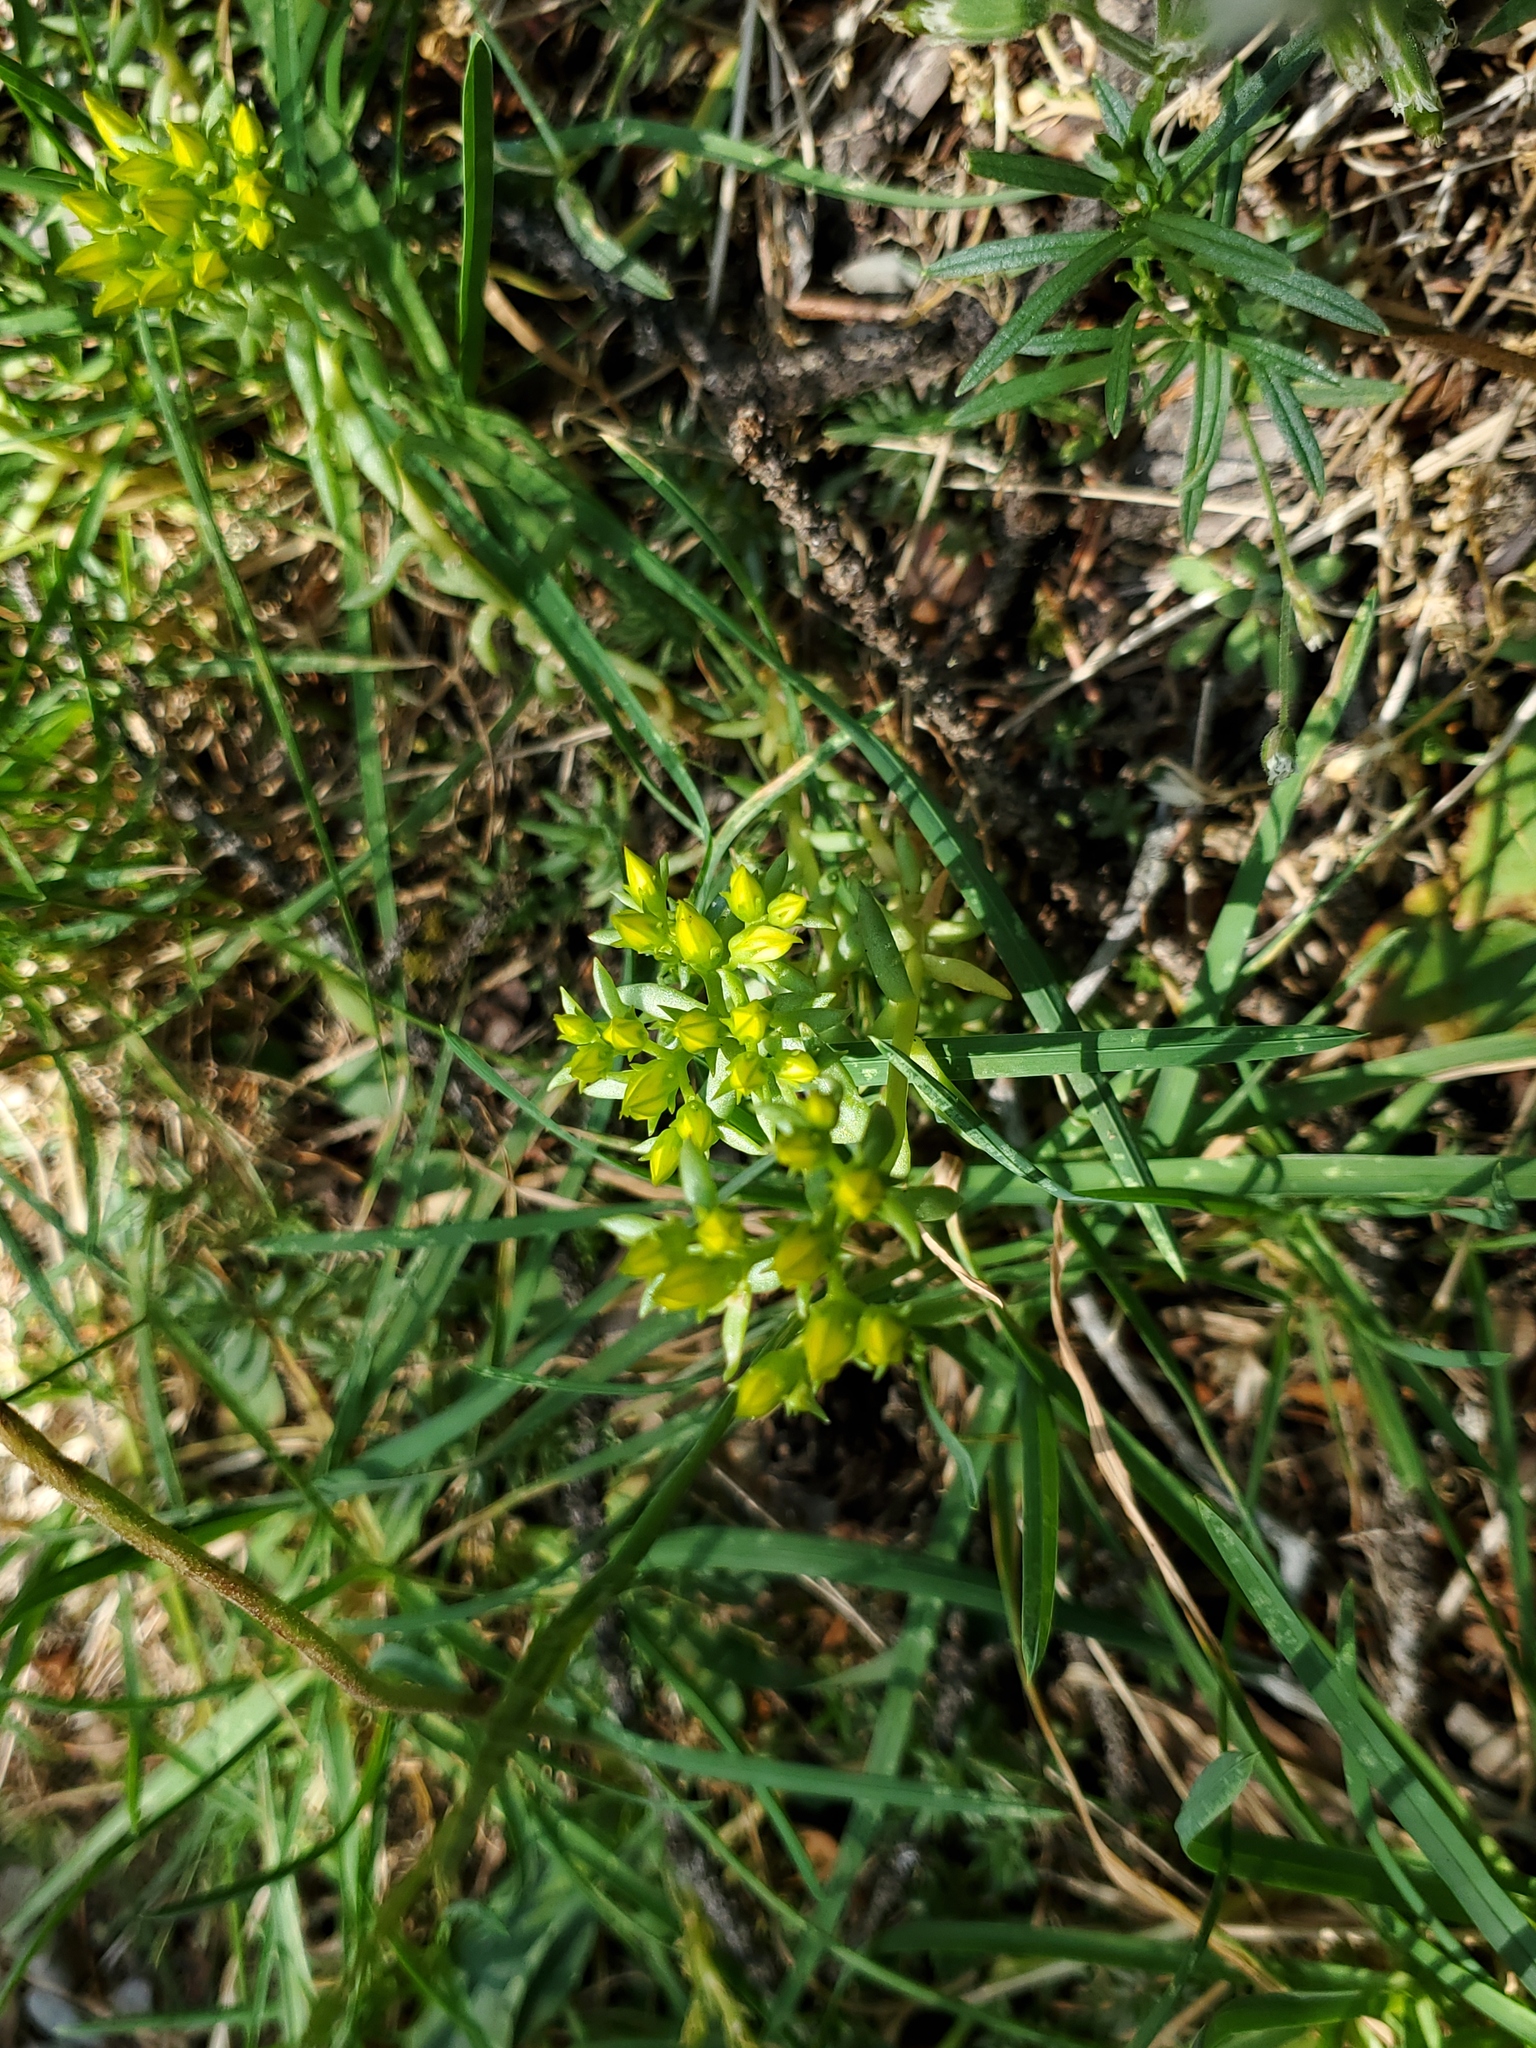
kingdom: Plantae
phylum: Tracheophyta
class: Magnoliopsida
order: Saxifragales
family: Crassulaceae
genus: Sedum
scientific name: Sedum lanceolatum
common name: Common stonecrop
